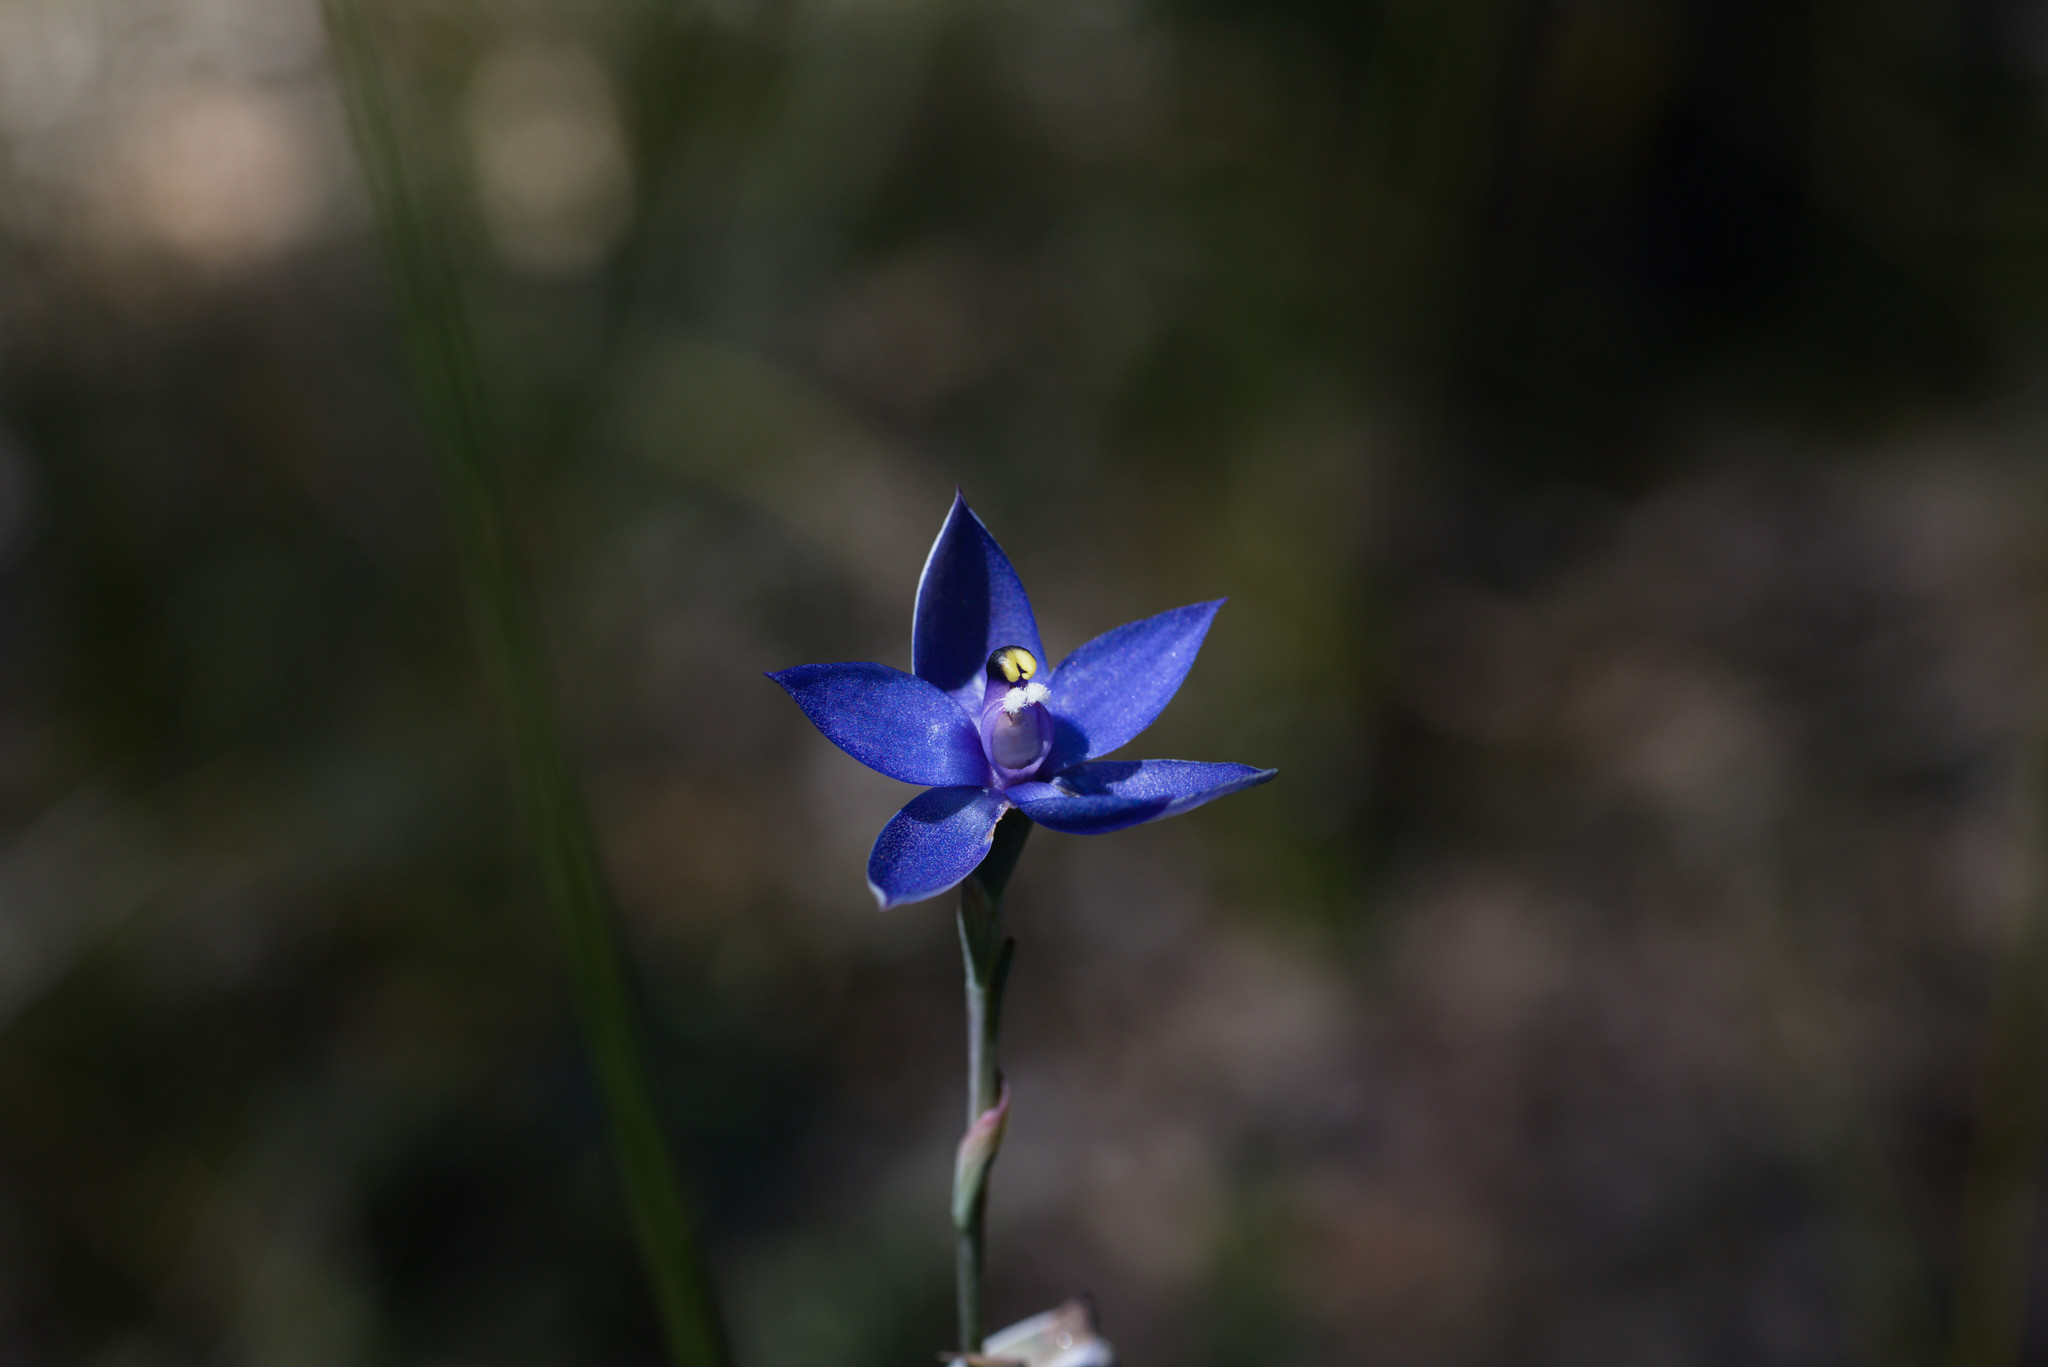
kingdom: Plantae
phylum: Tracheophyta
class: Liliopsida
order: Asparagales
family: Orchidaceae
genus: Thelymitra
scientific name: Thelymitra graminea
